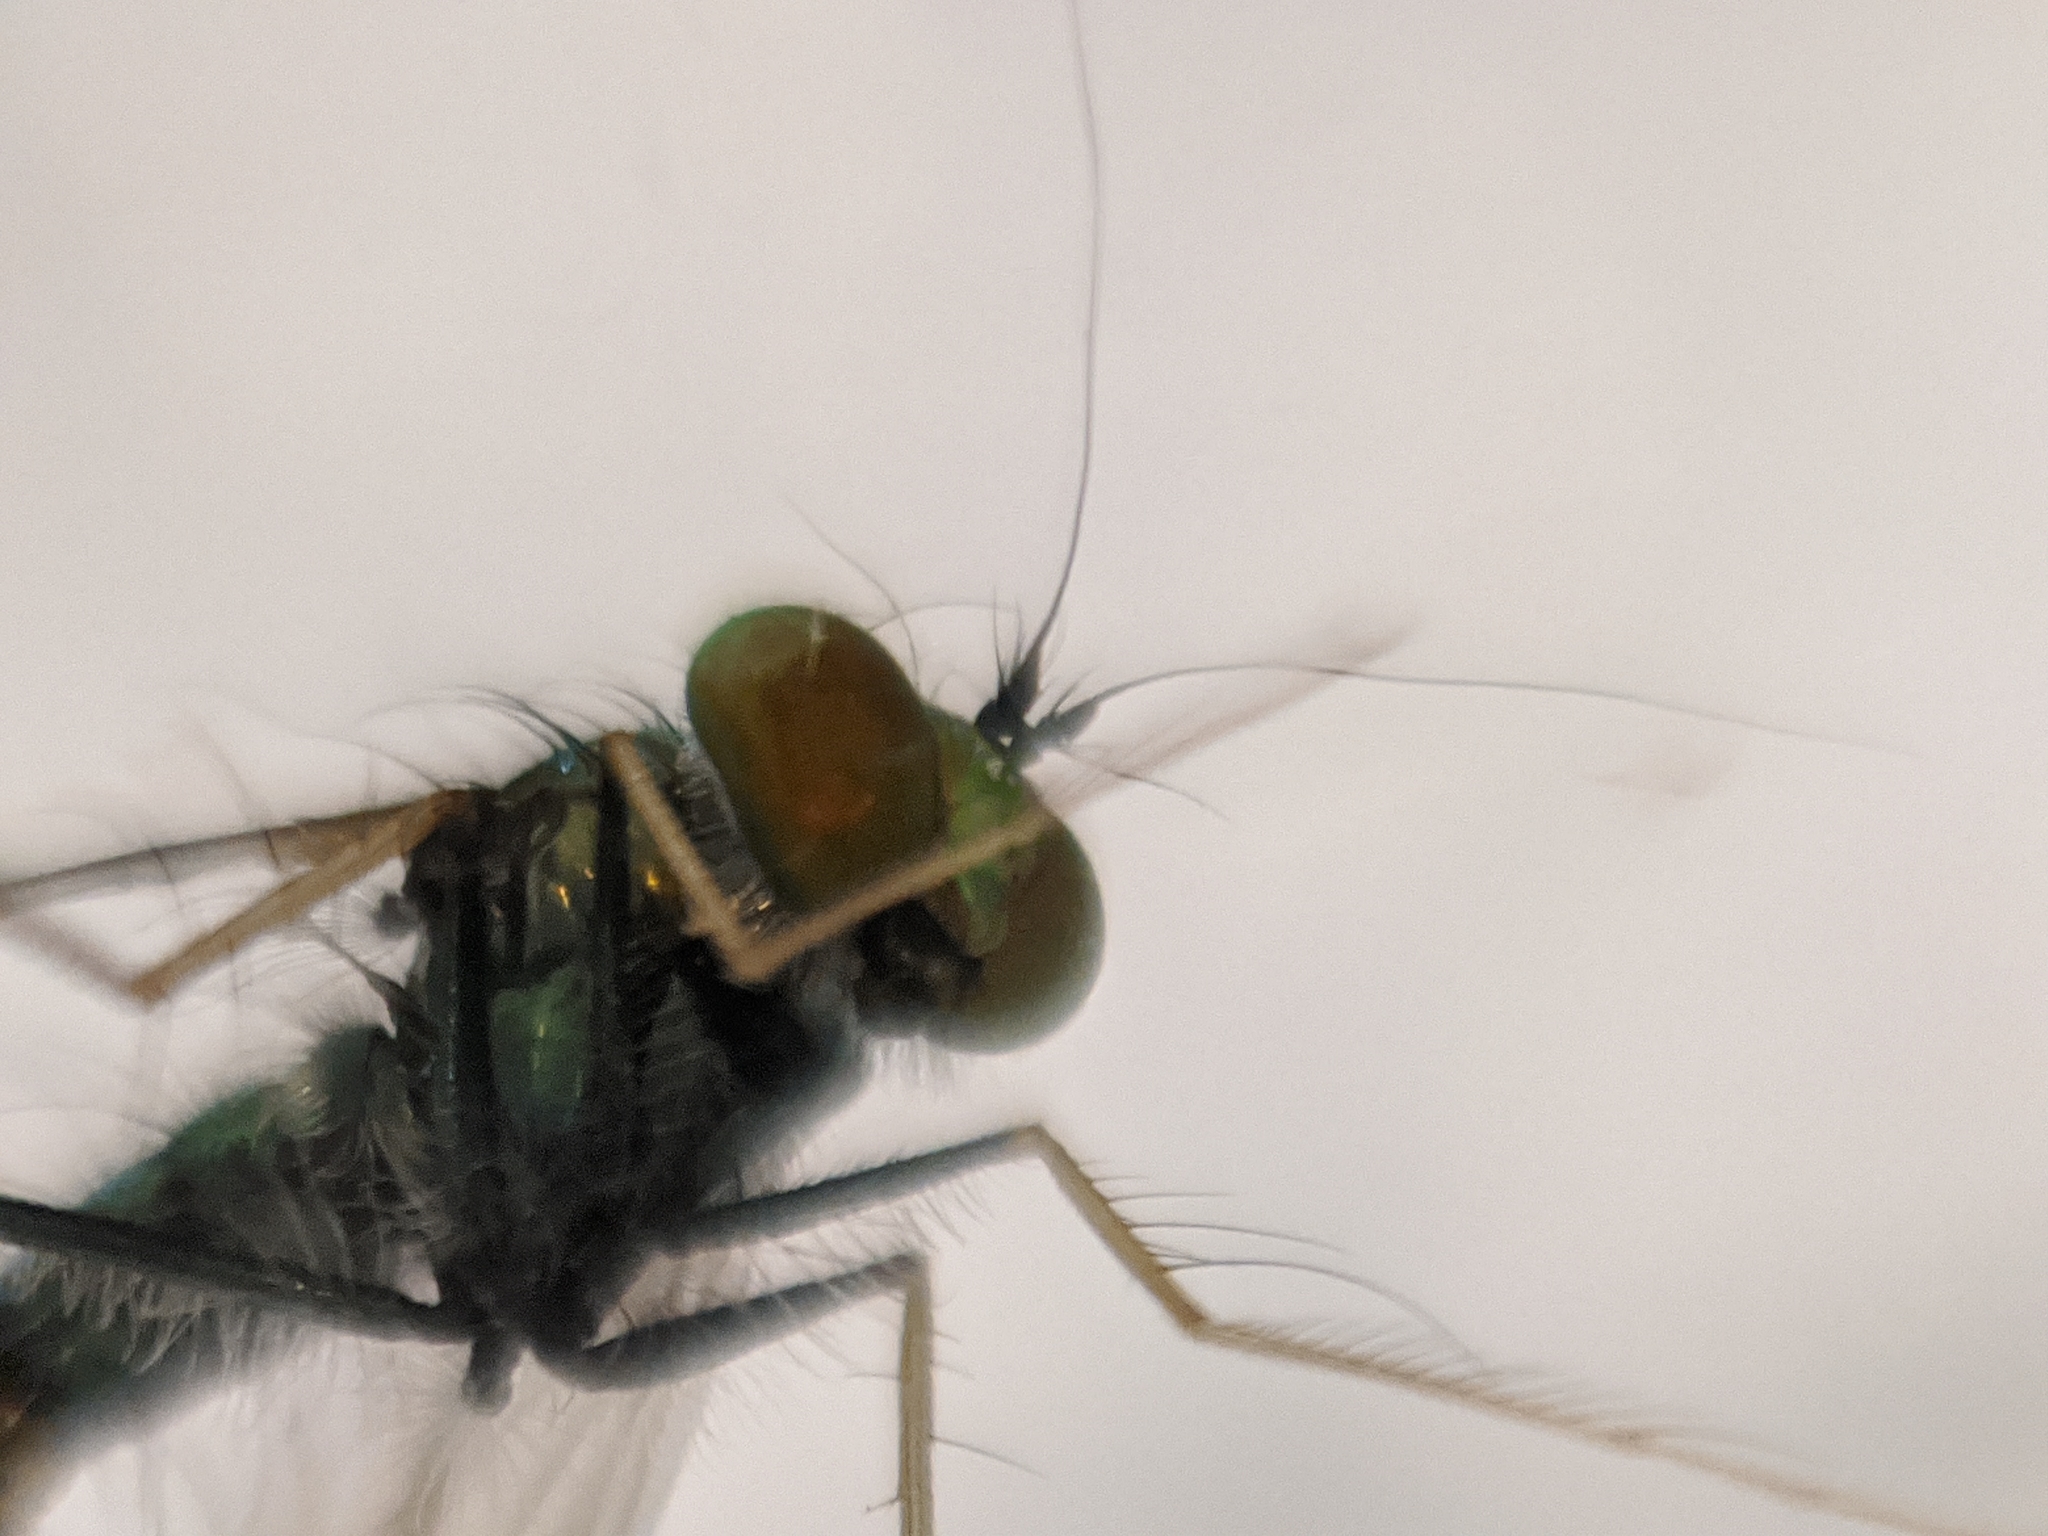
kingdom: Animalia
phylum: Arthropoda
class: Insecta
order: Diptera
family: Dolichopodidae
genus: Condylostylus
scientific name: Condylostylus comatus
